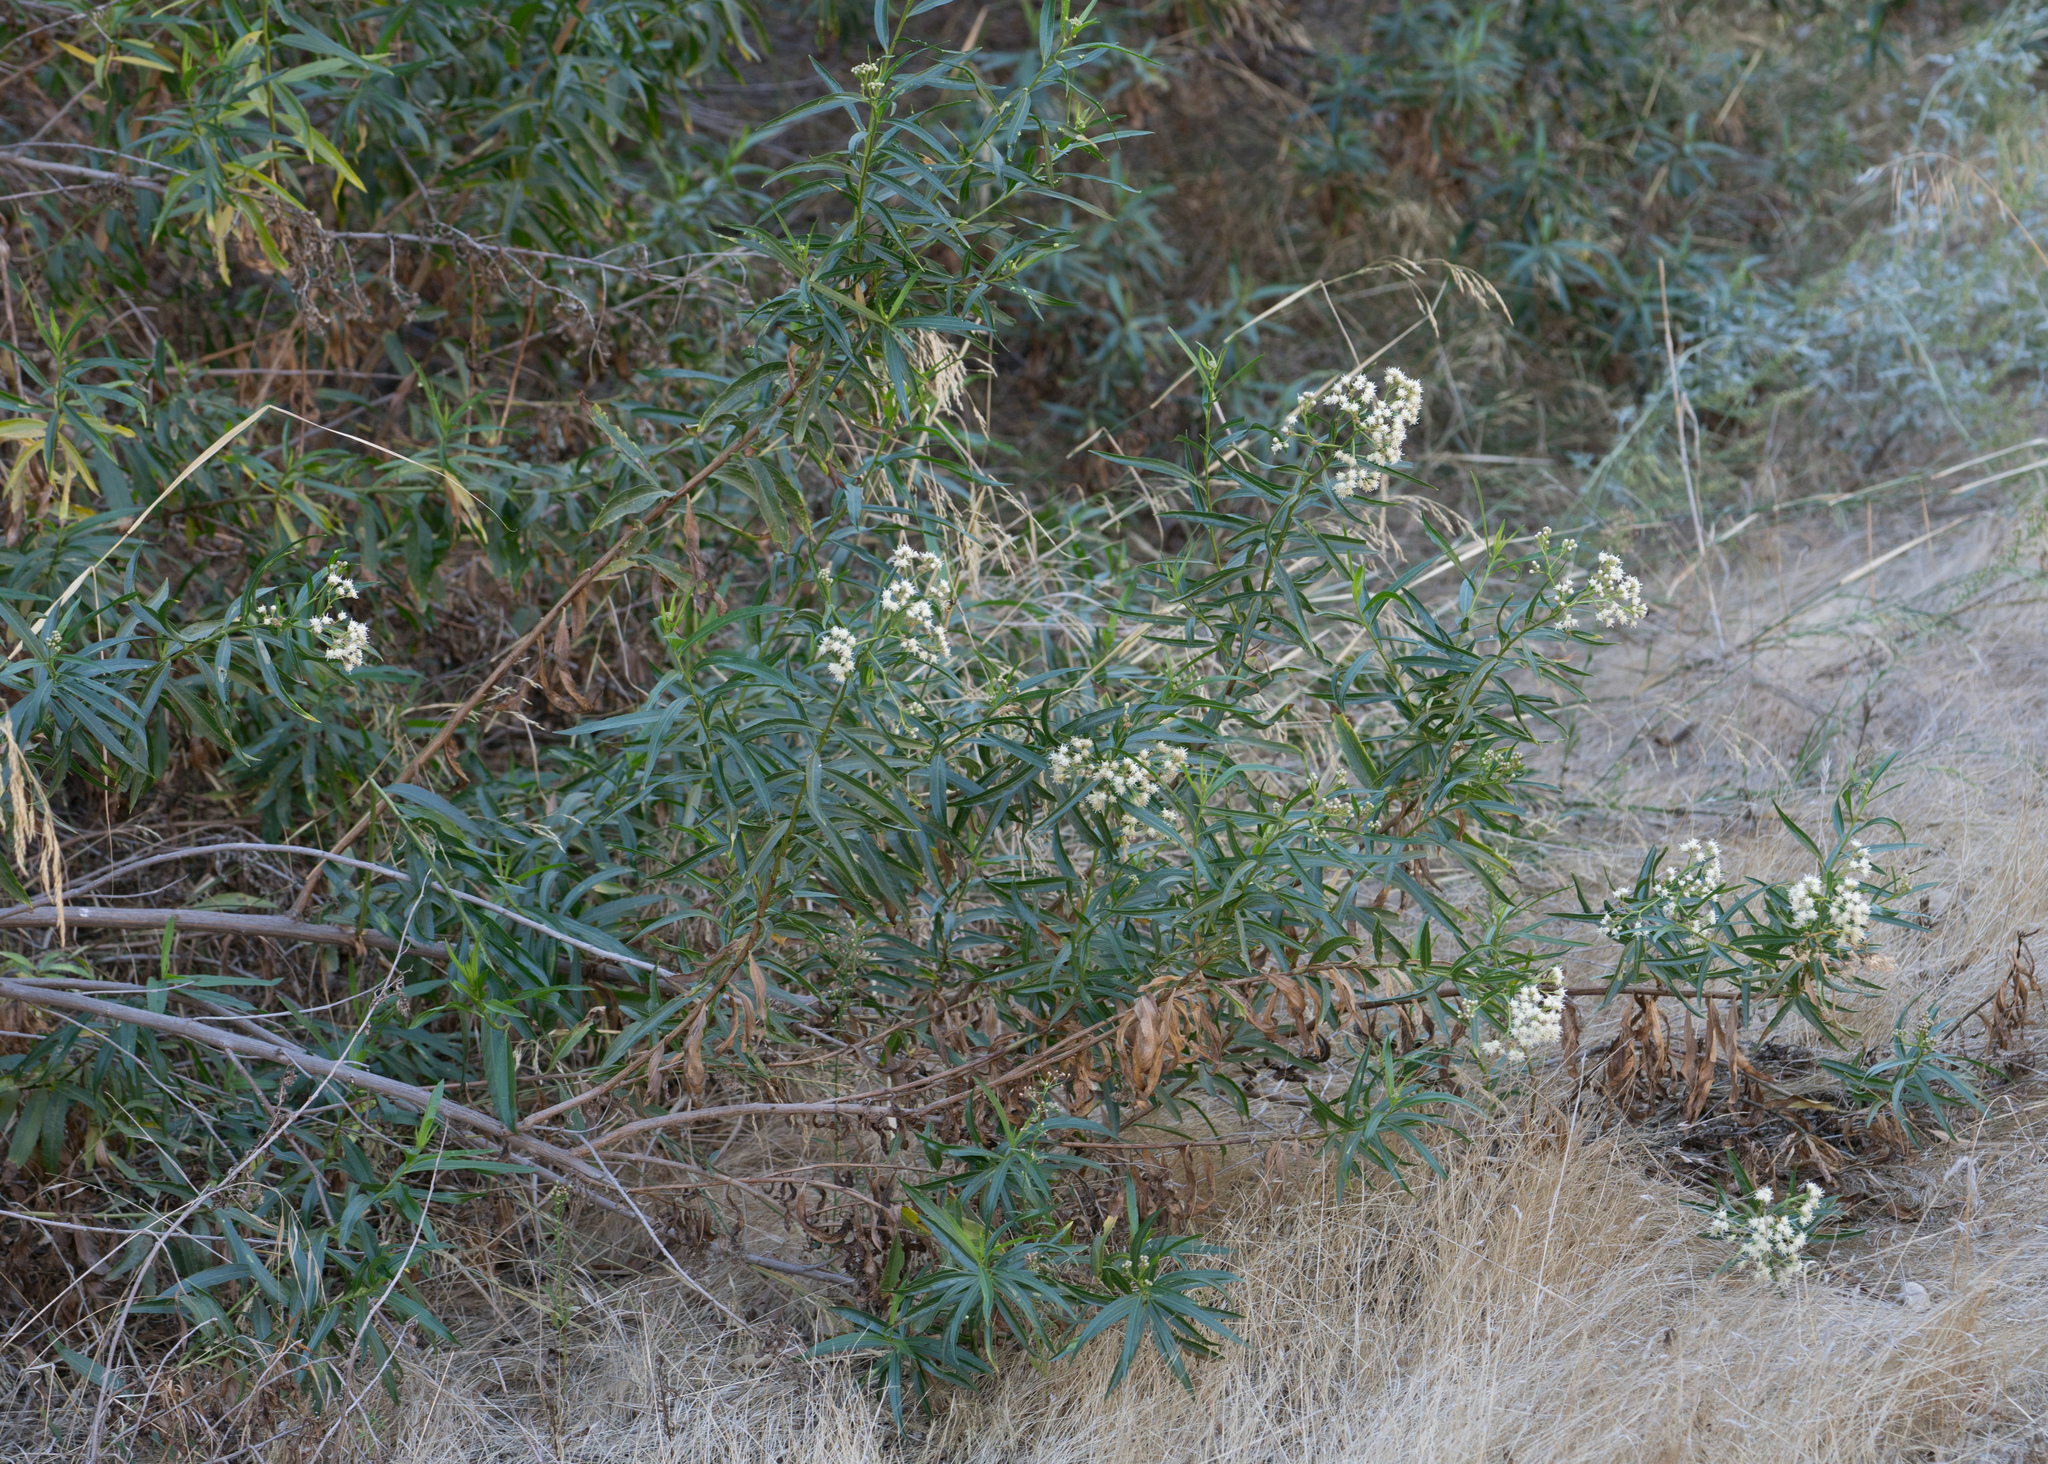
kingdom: Plantae
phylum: Tracheophyta
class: Magnoliopsida
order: Asterales
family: Asteraceae
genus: Baccharis
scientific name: Baccharis salicifolia
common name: Sticky baccharis
